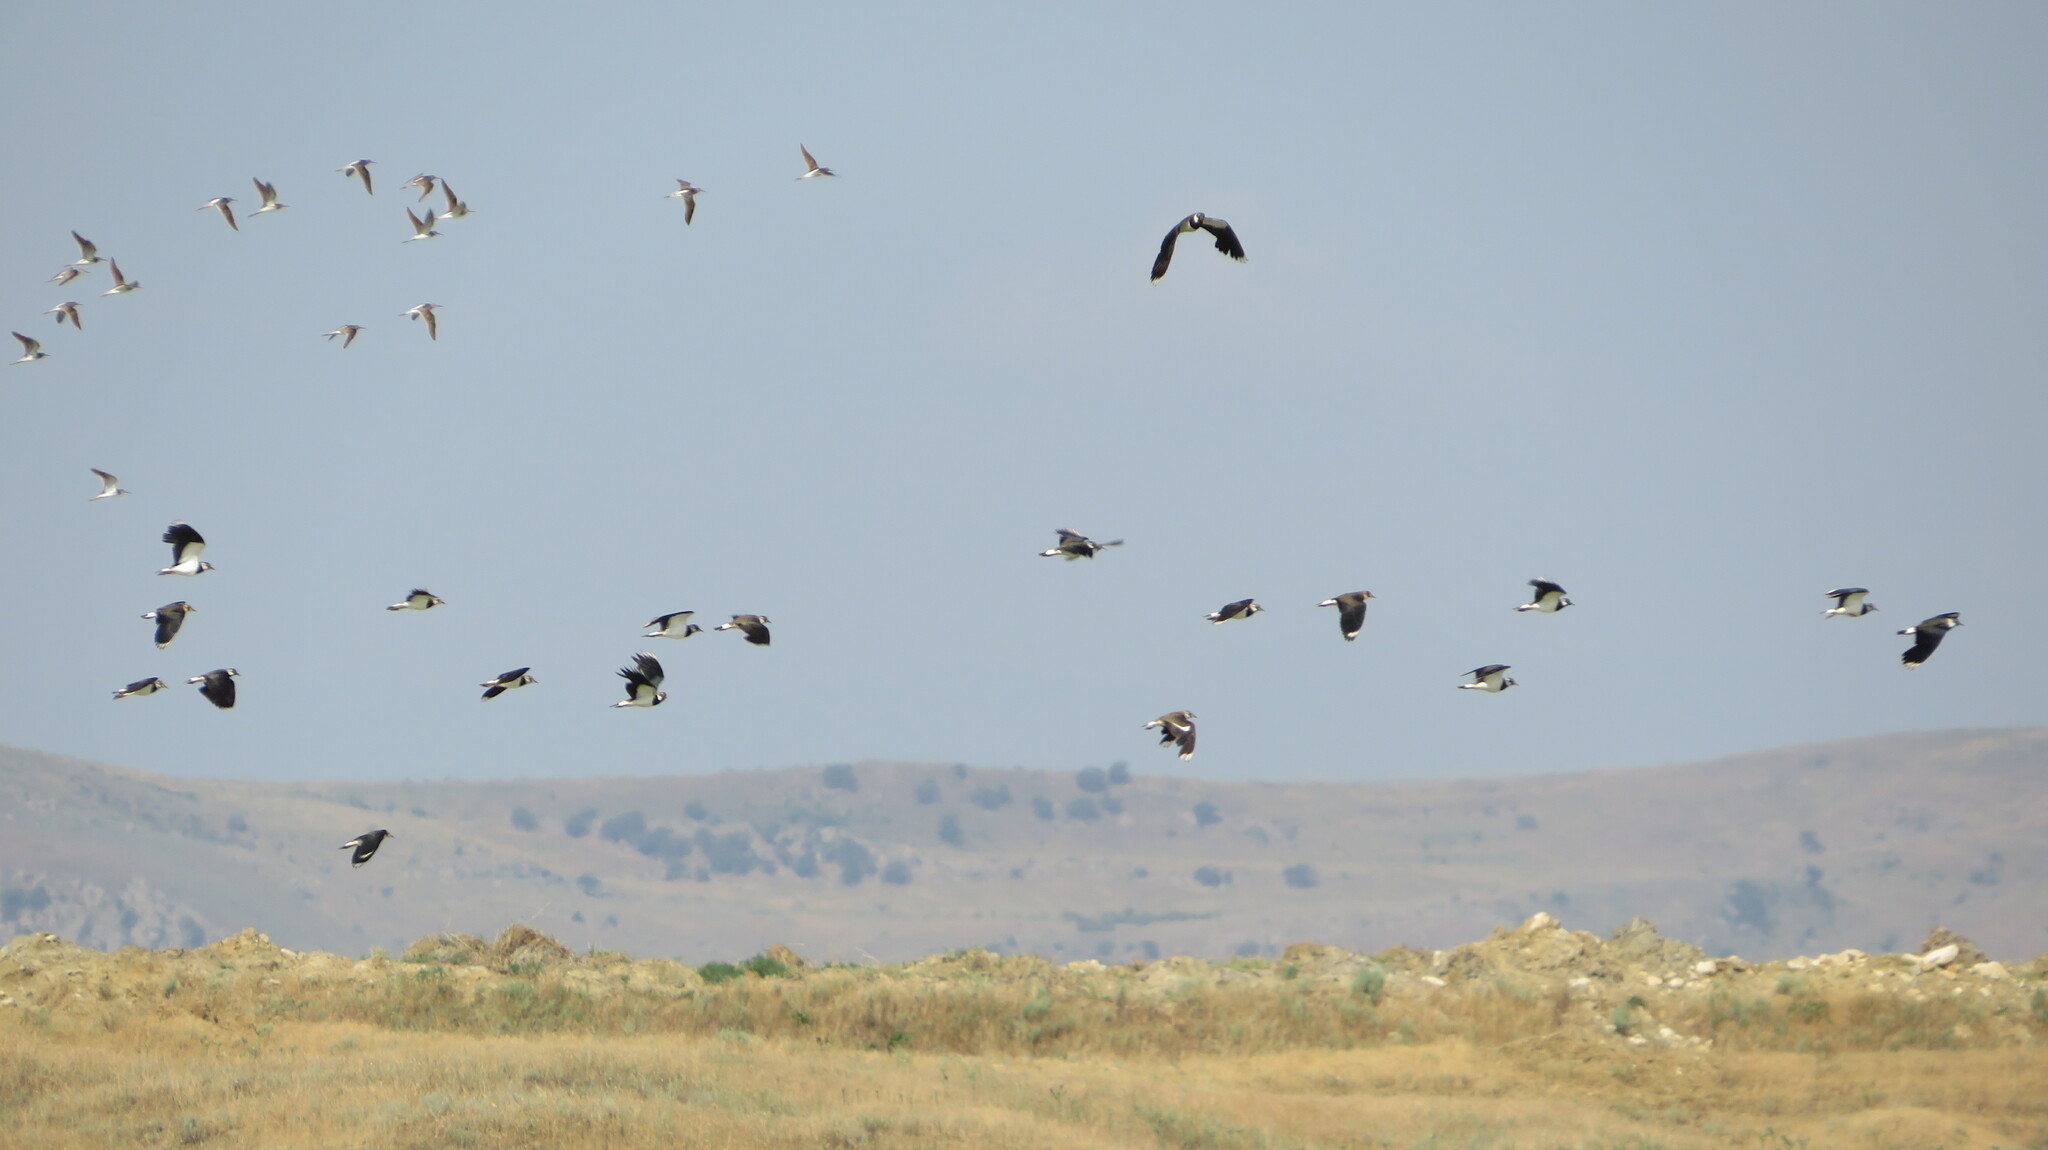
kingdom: Animalia
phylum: Chordata
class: Aves
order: Charadriiformes
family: Charadriidae
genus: Vanellus
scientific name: Vanellus vanellus
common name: Northern lapwing
